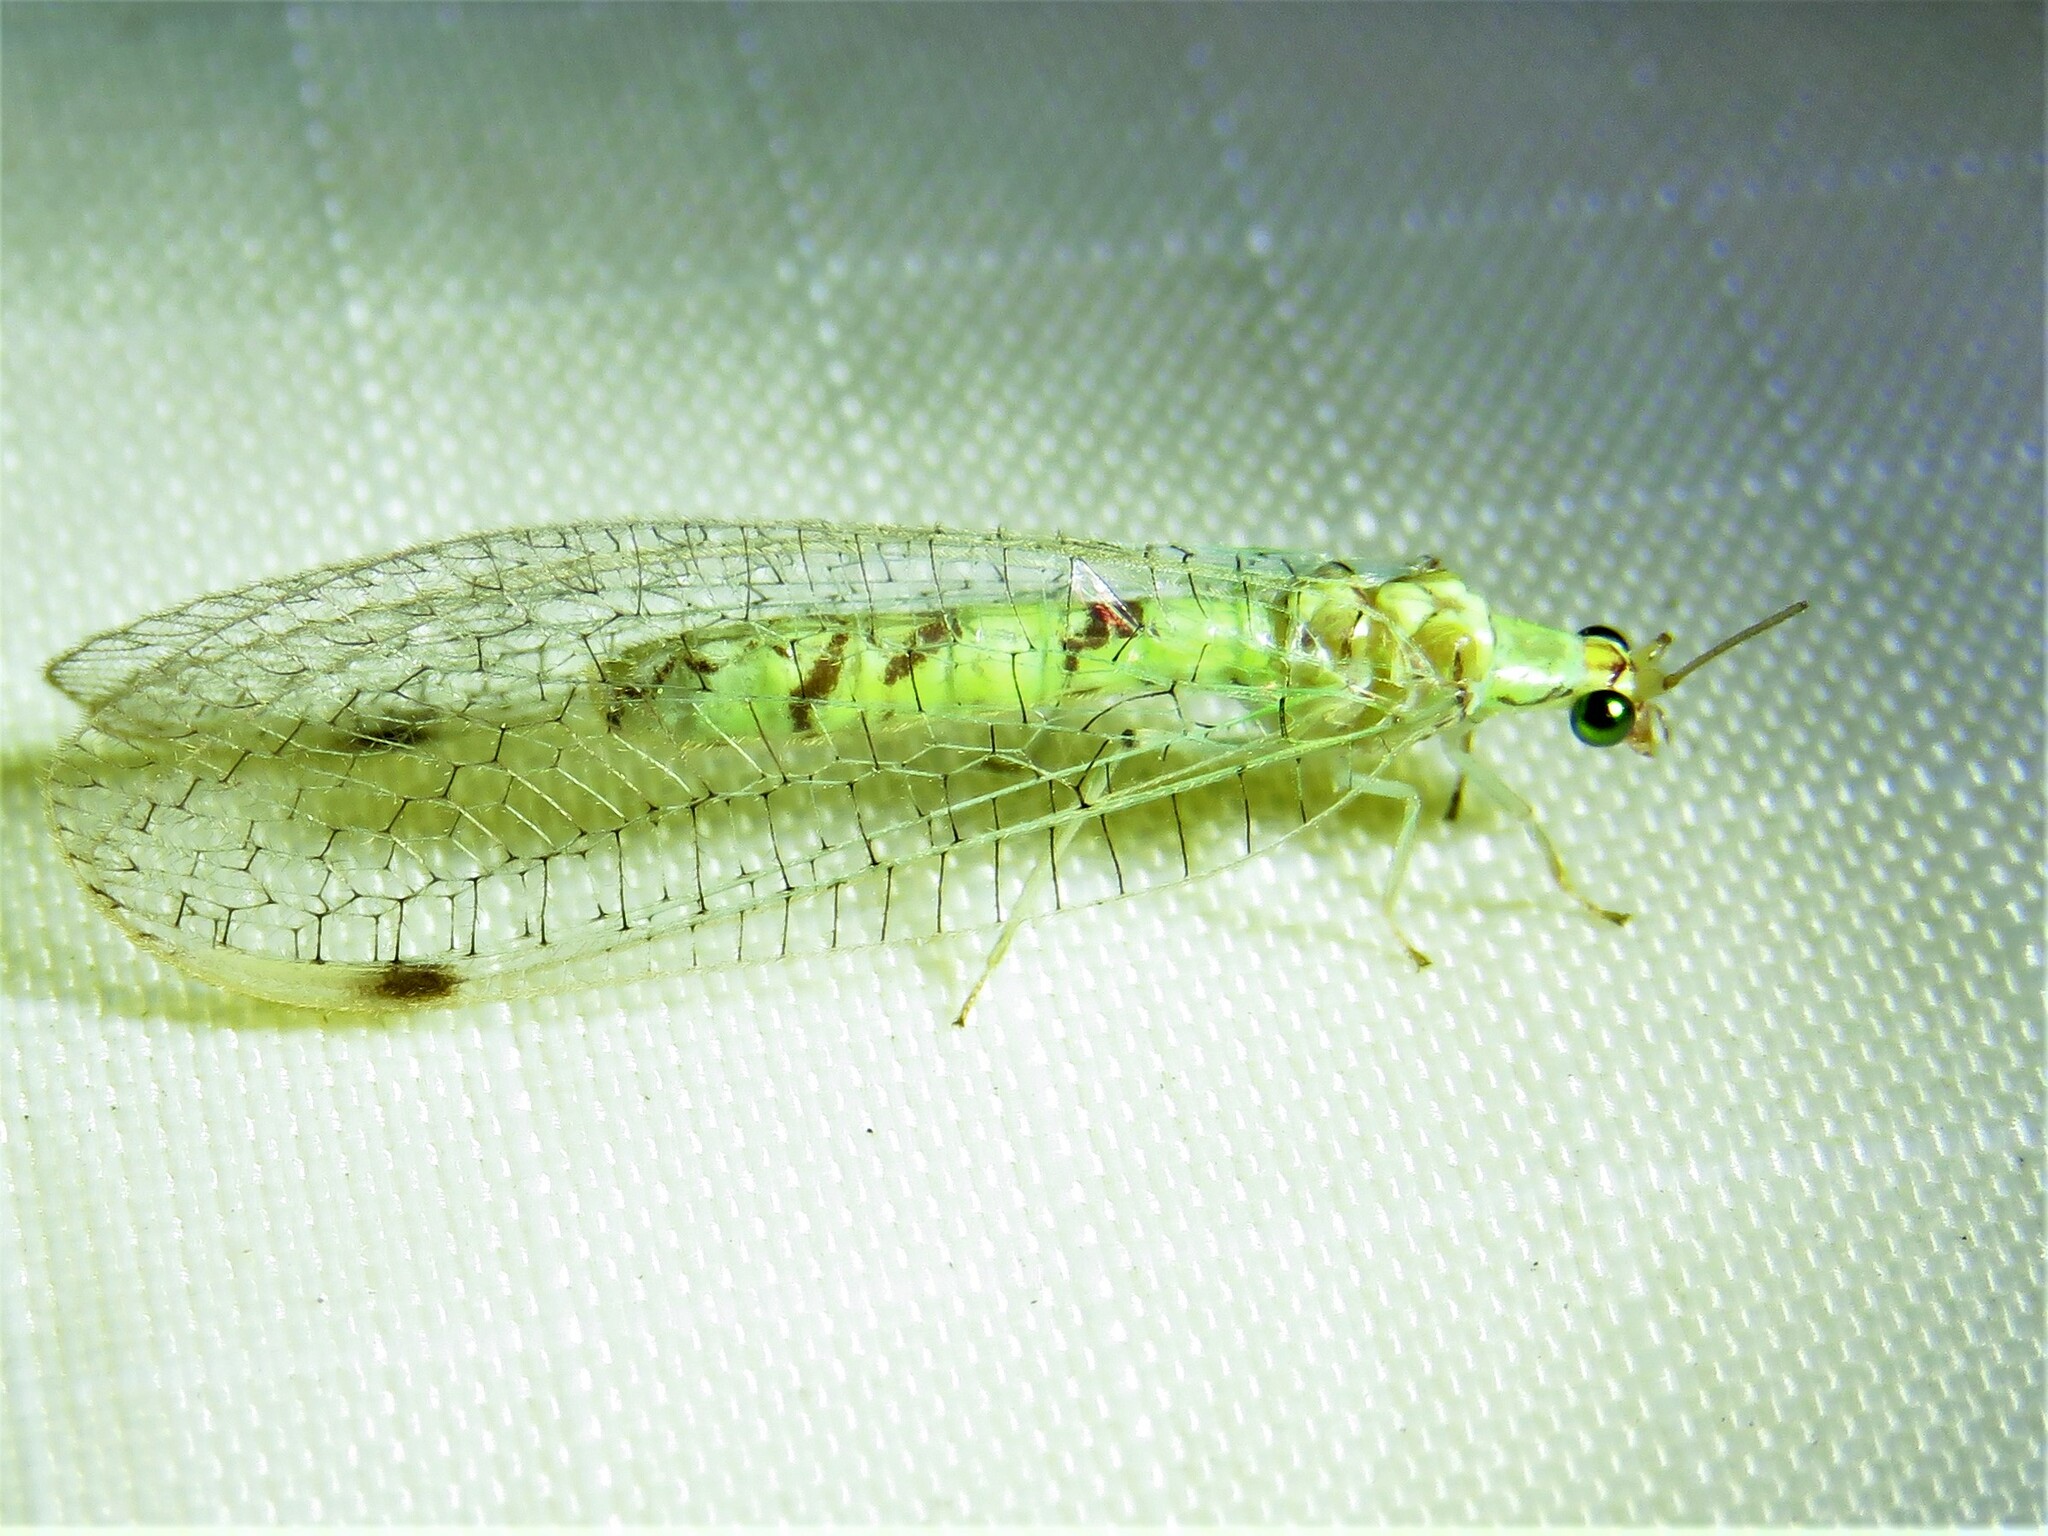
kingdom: Animalia
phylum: Arthropoda
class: Insecta
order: Neuroptera
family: Chrysopidae
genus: Leucochrysa
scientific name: Leucochrysa americana
